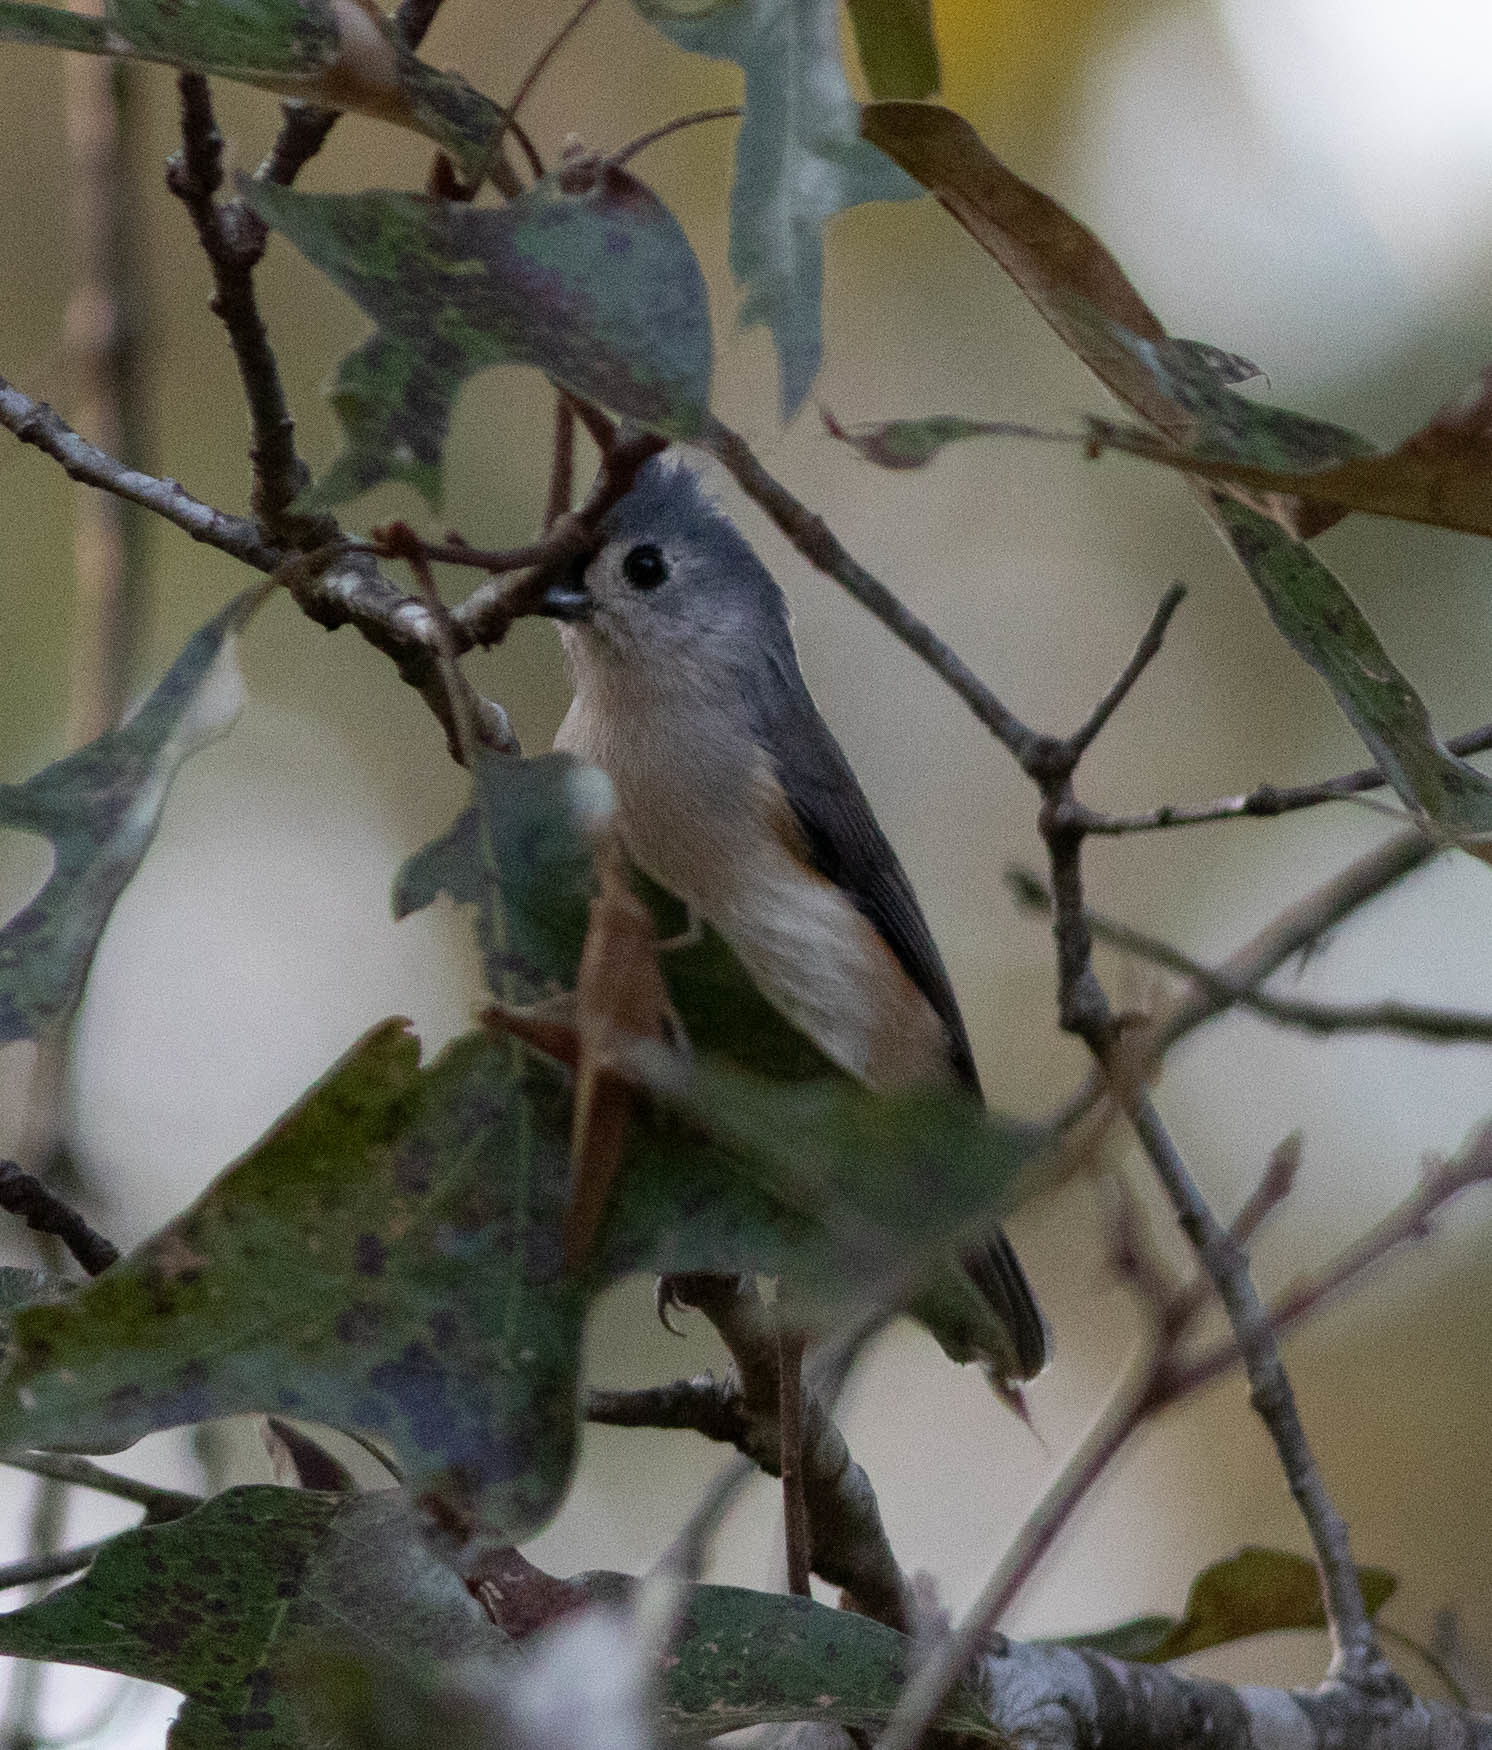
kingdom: Animalia
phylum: Chordata
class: Aves
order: Passeriformes
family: Paridae
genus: Baeolophus
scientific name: Baeolophus bicolor
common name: Tufted titmouse
